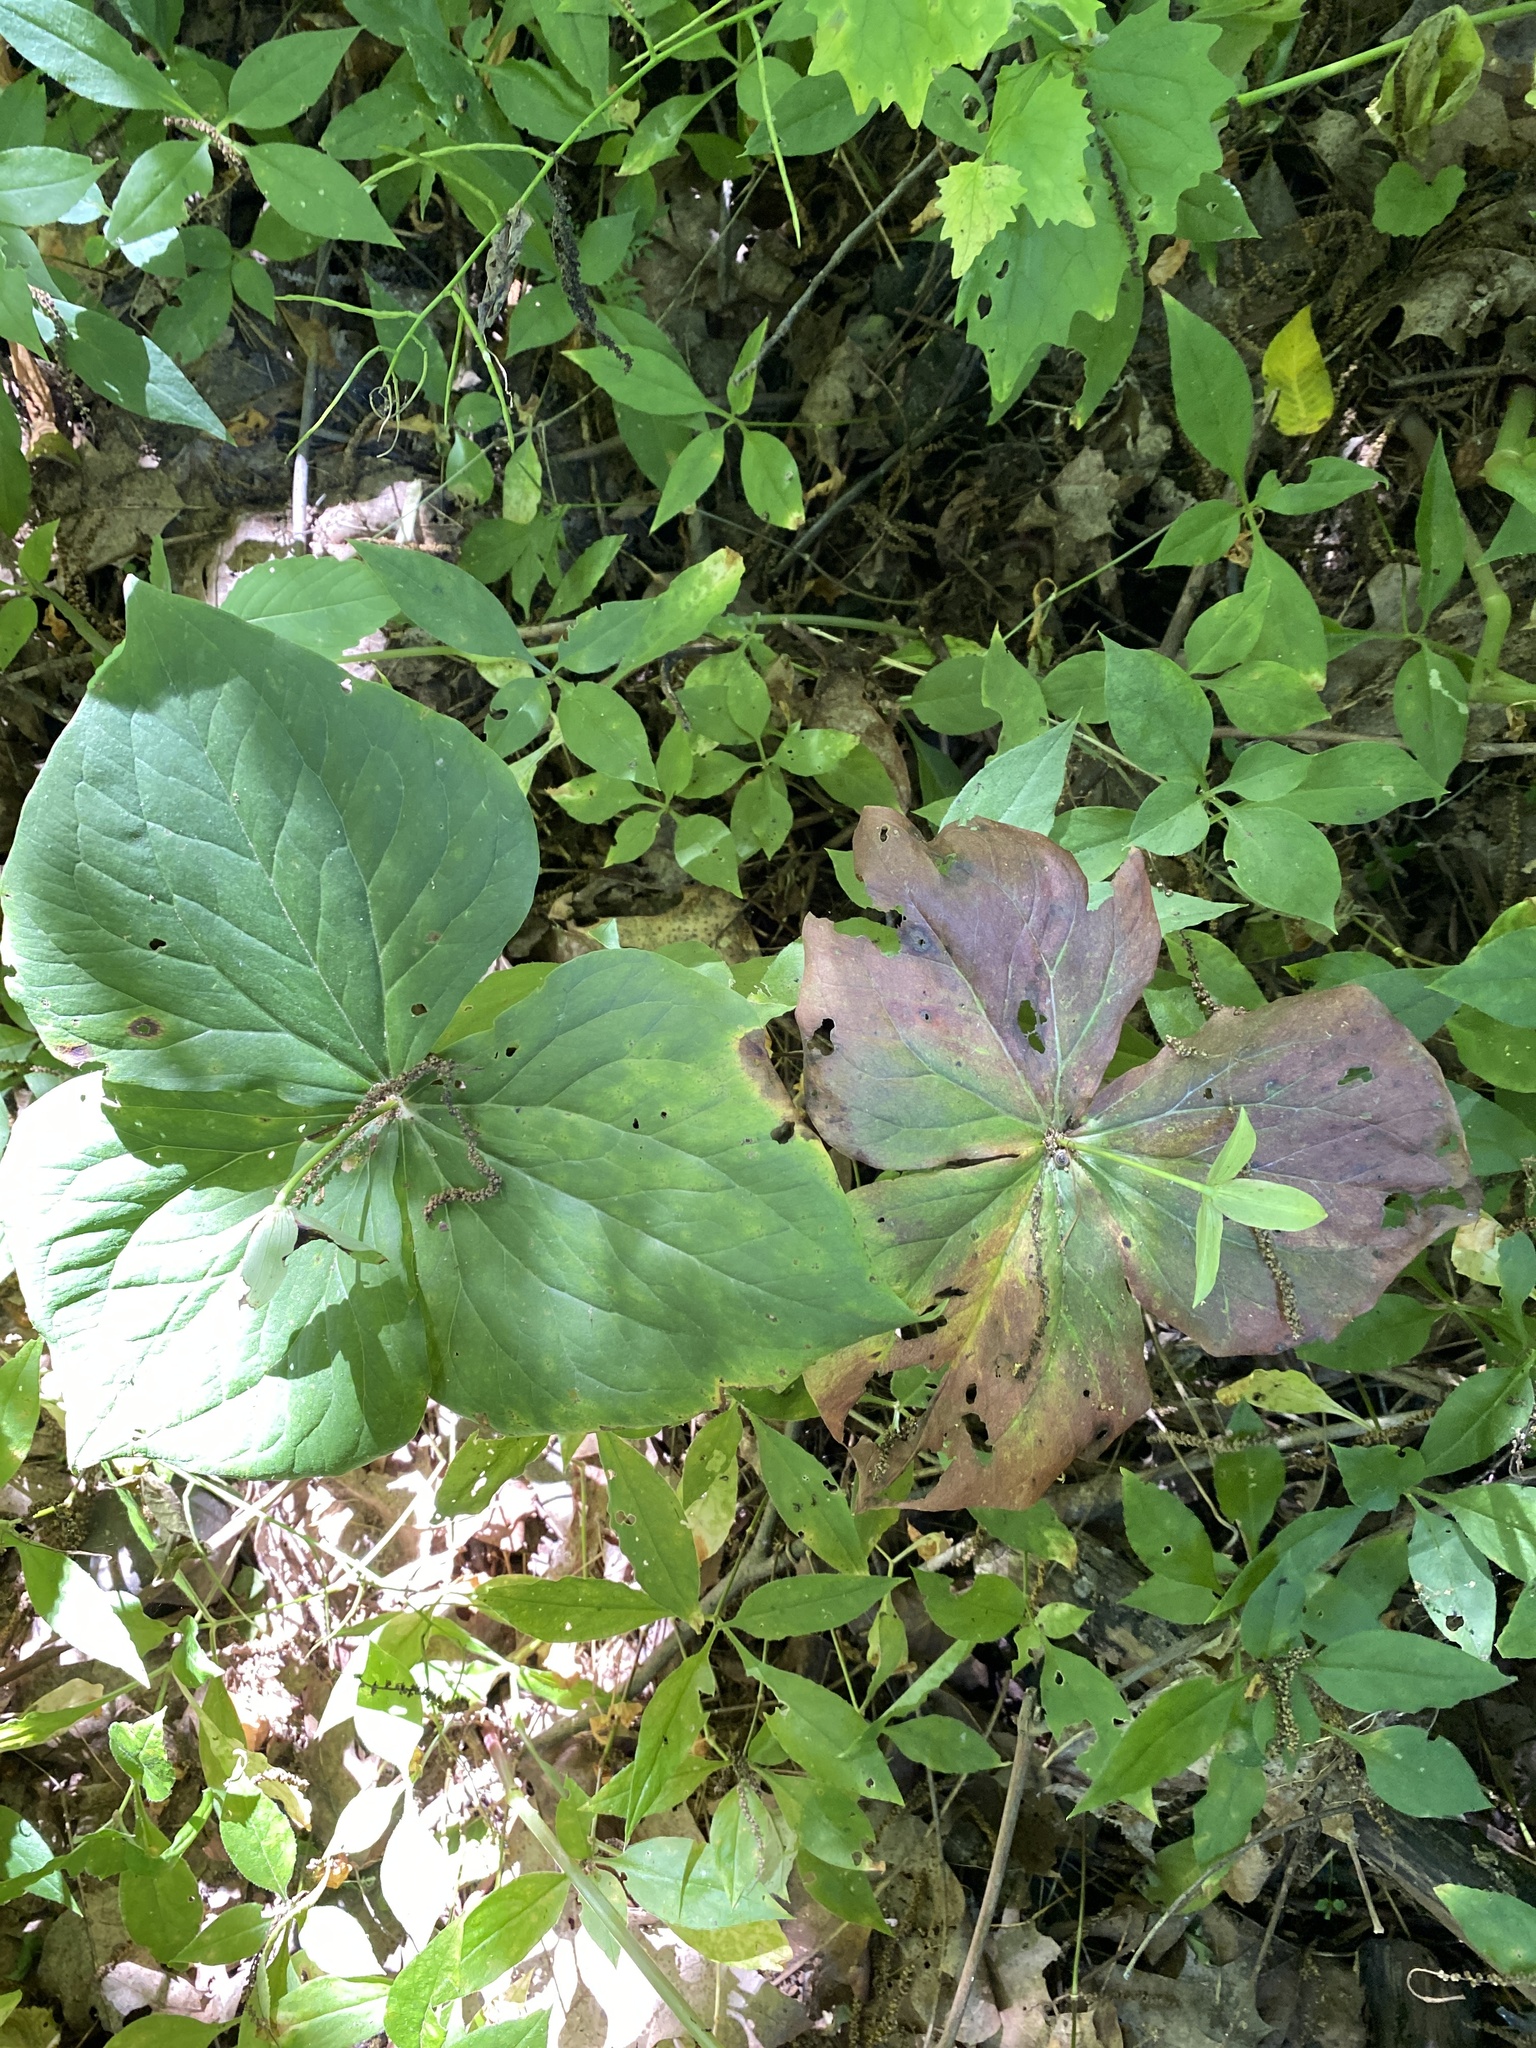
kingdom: Plantae
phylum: Tracheophyta
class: Liliopsida
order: Liliales
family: Melanthiaceae
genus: Trillium
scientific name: Trillium grandiflorum
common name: Great white trillium
